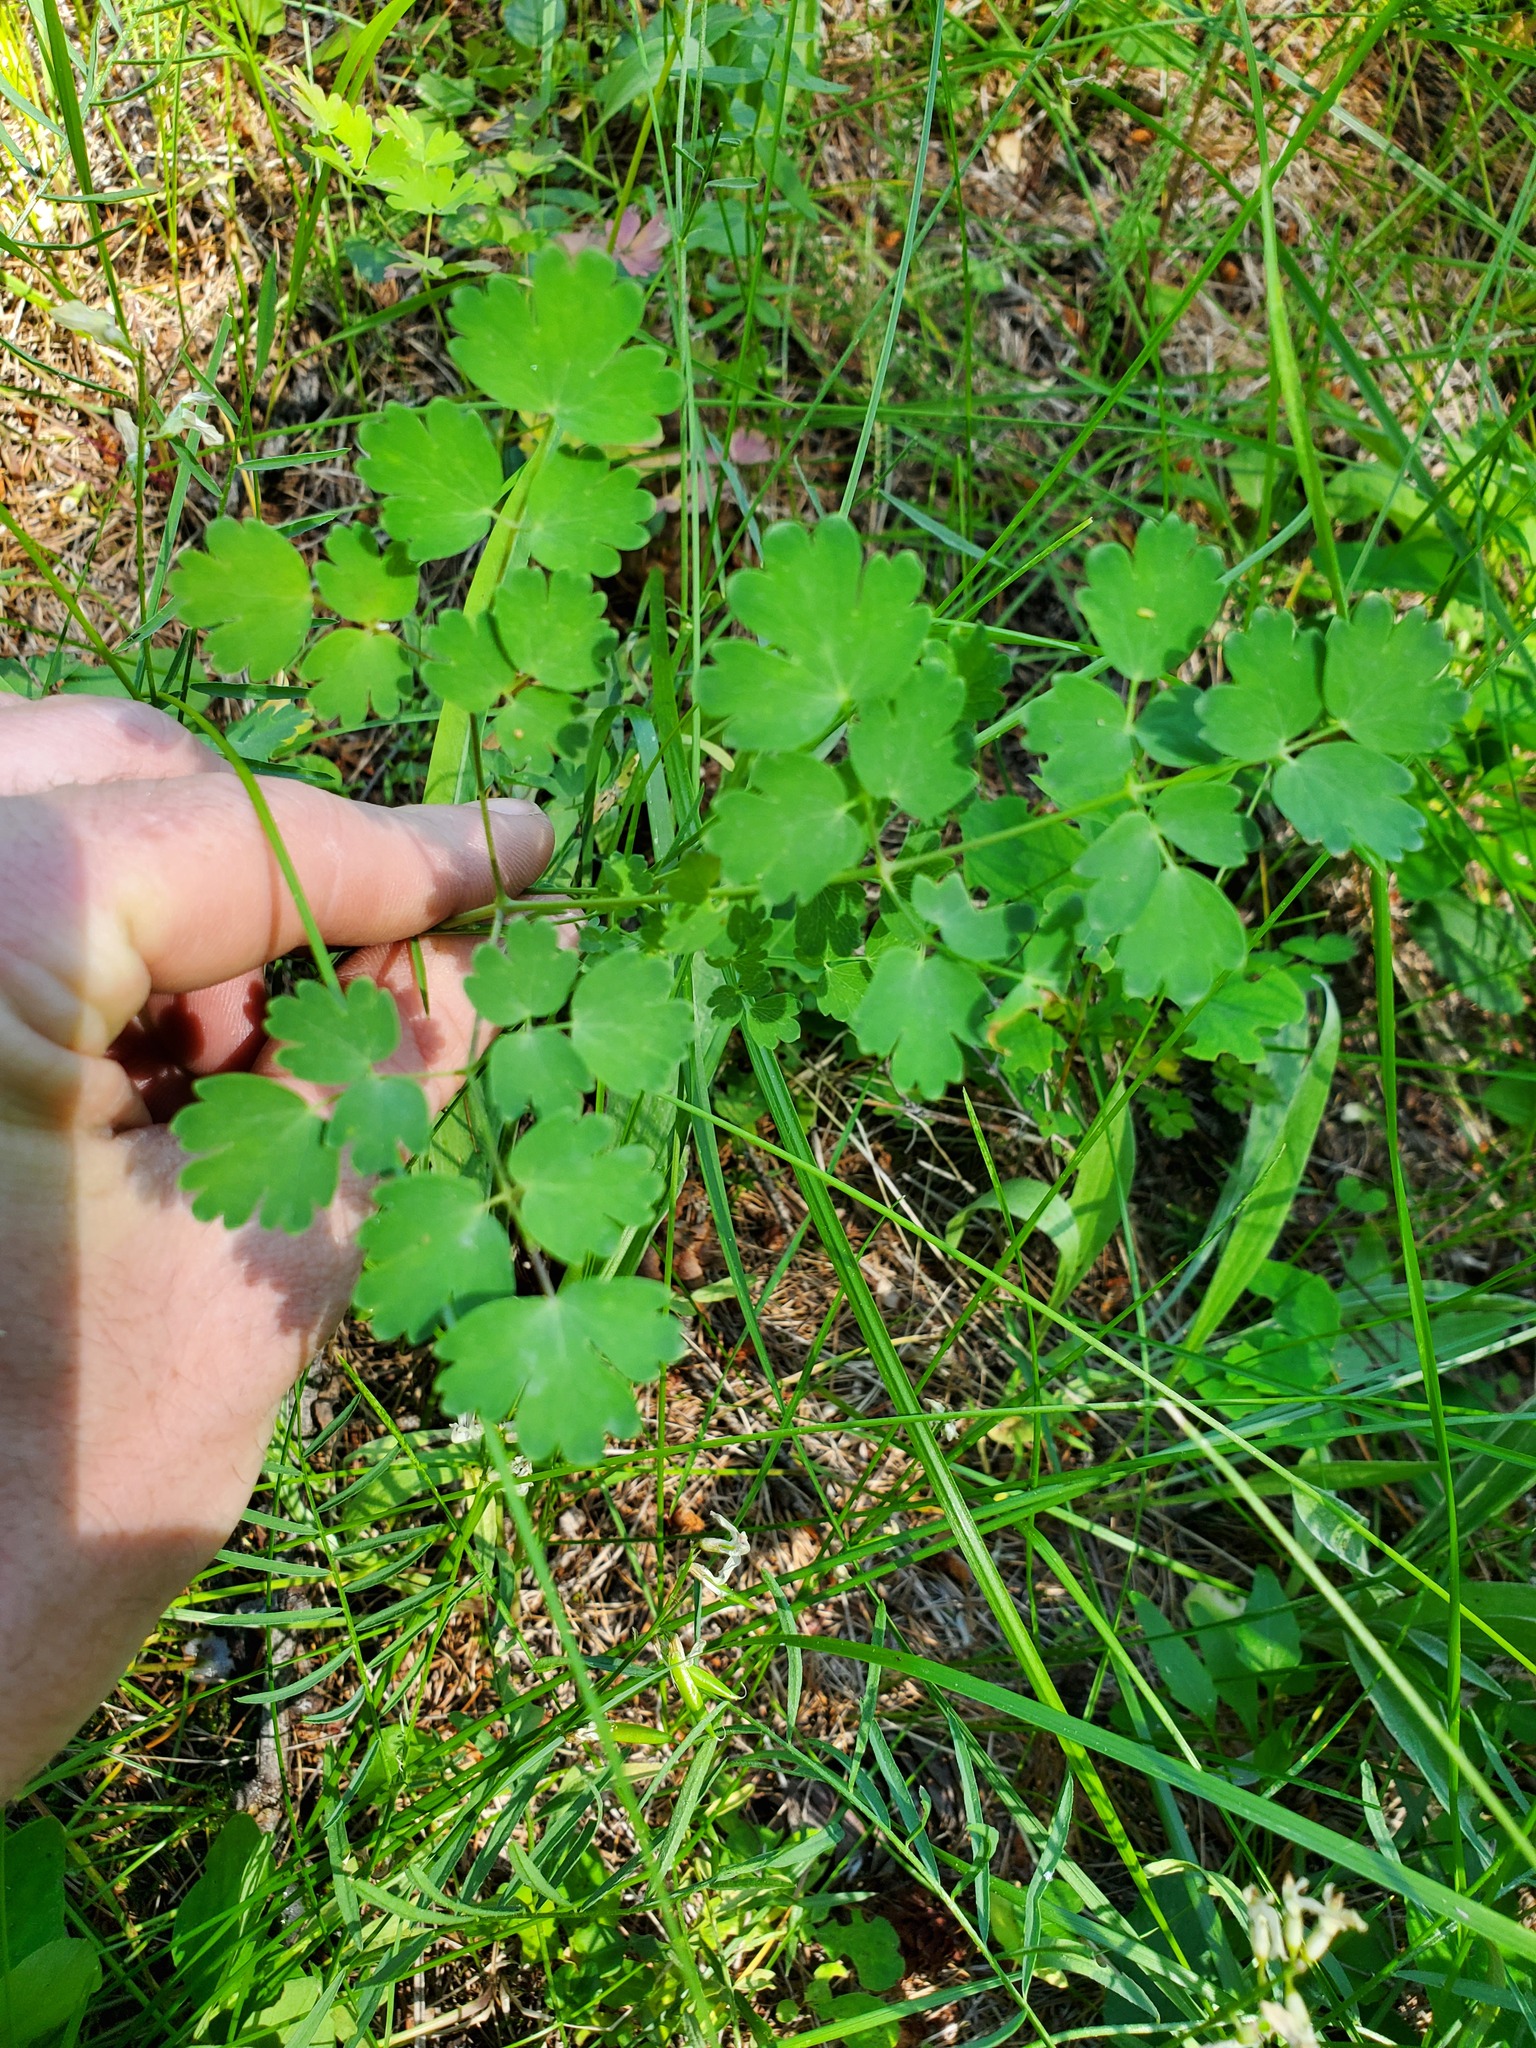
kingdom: Plantae
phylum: Tracheophyta
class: Magnoliopsida
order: Ranunculales
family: Ranunculaceae
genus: Thalictrum
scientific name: Thalictrum occidentale
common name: Western meadow-rue
